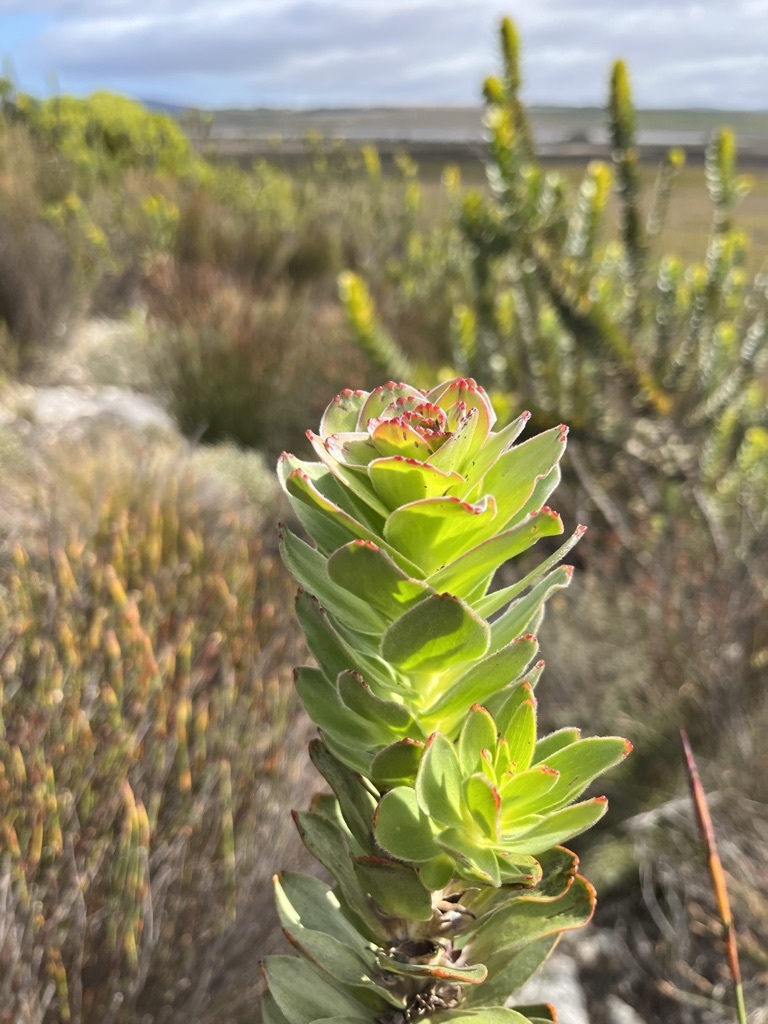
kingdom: Plantae
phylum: Tracheophyta
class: Magnoliopsida
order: Proteales
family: Proteaceae
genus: Mimetes
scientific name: Mimetes saxatilis
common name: Limestone pagoda
